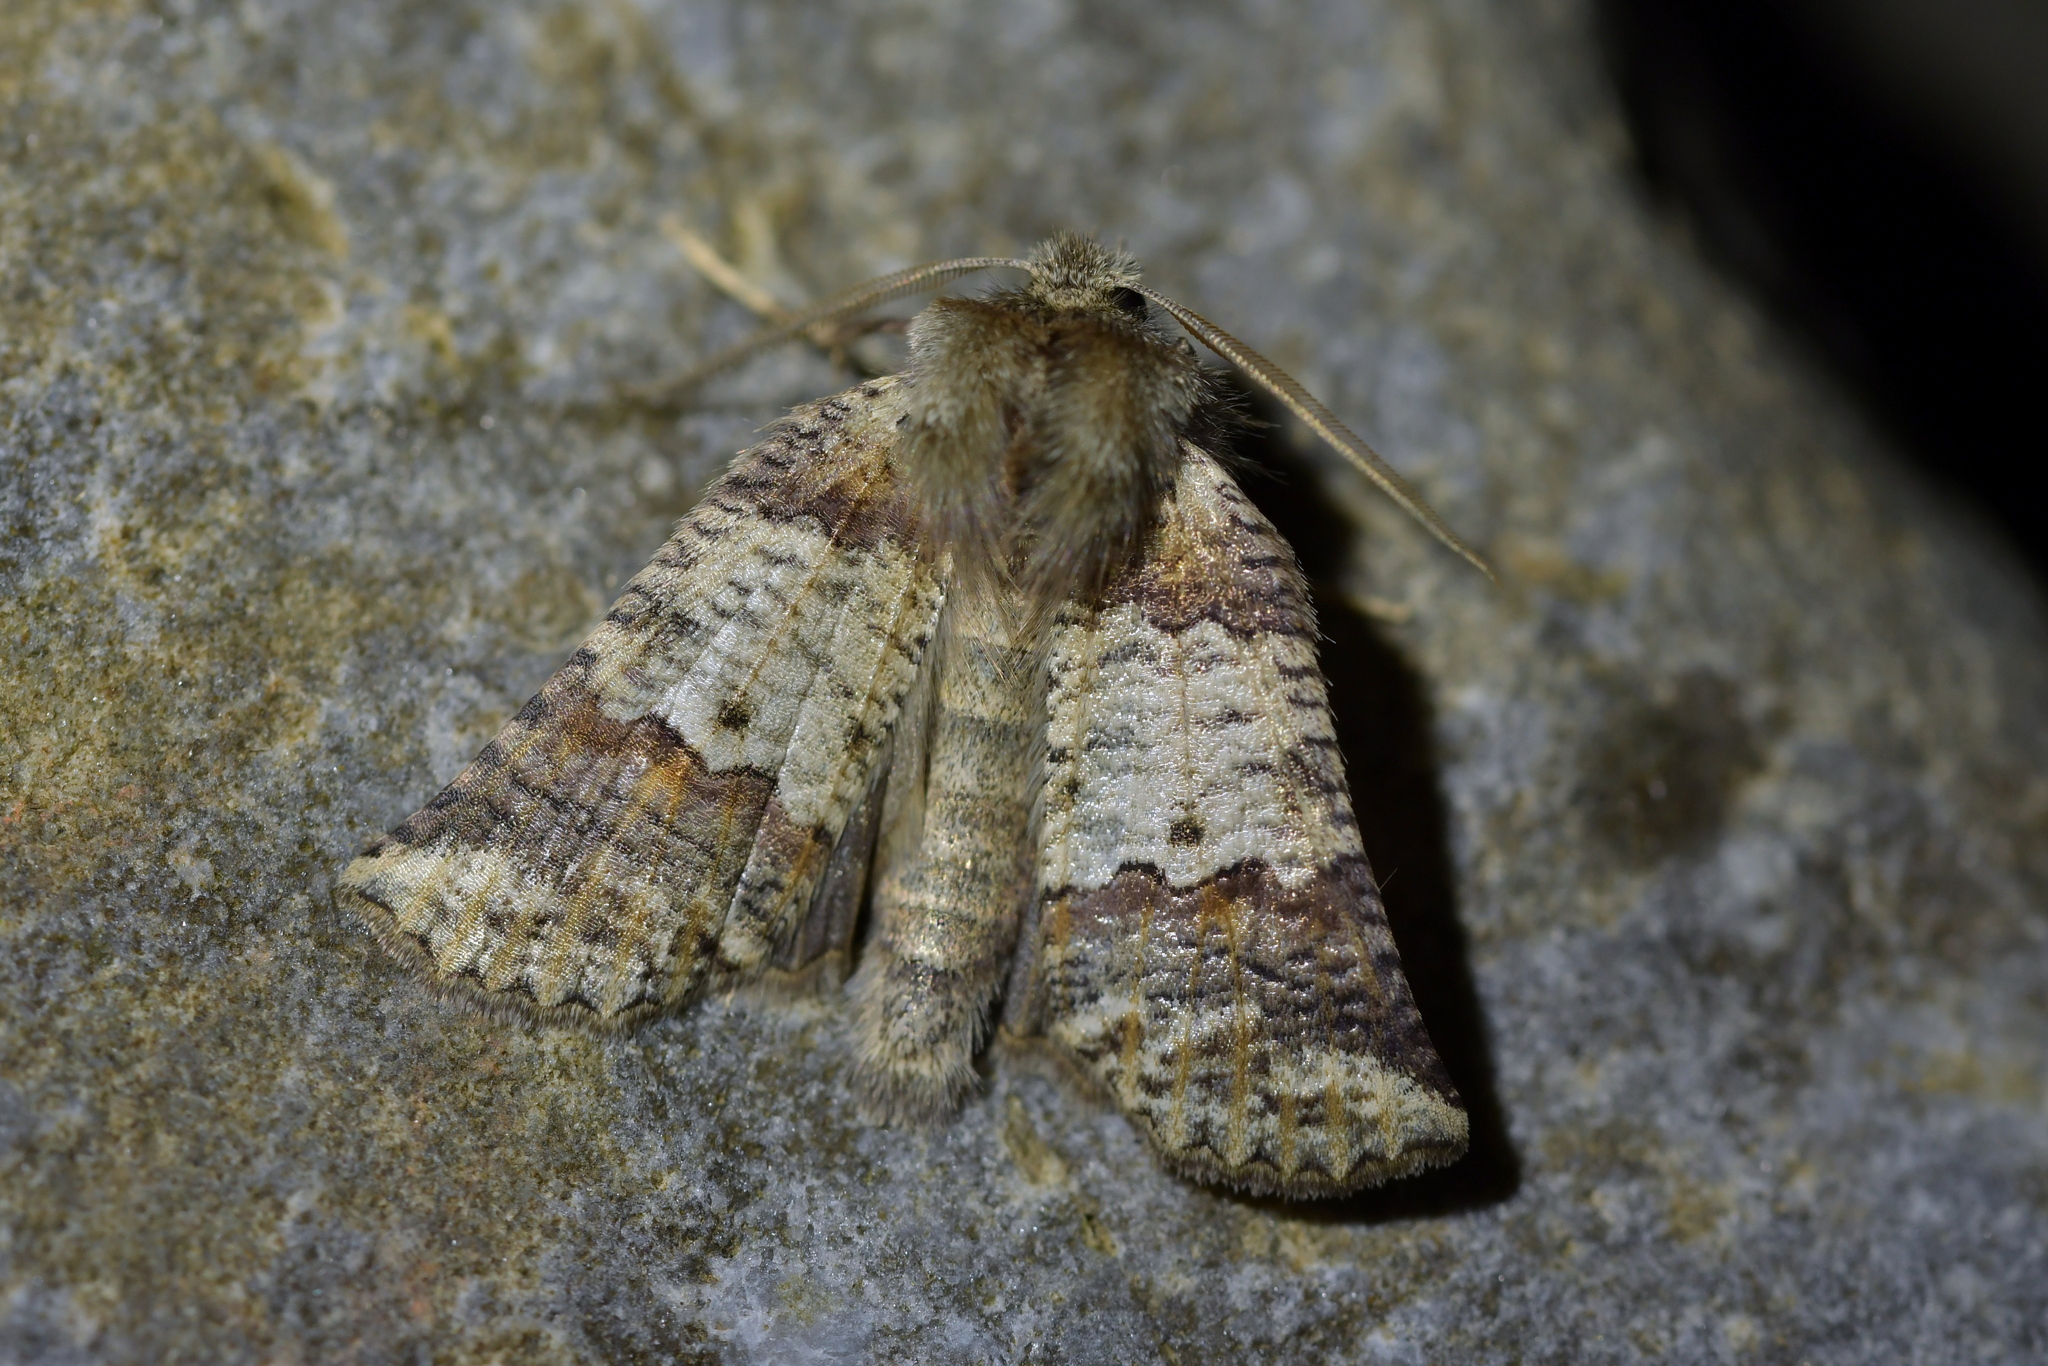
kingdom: Animalia
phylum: Arthropoda
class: Insecta
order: Lepidoptera
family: Geometridae
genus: Declana
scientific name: Declana
